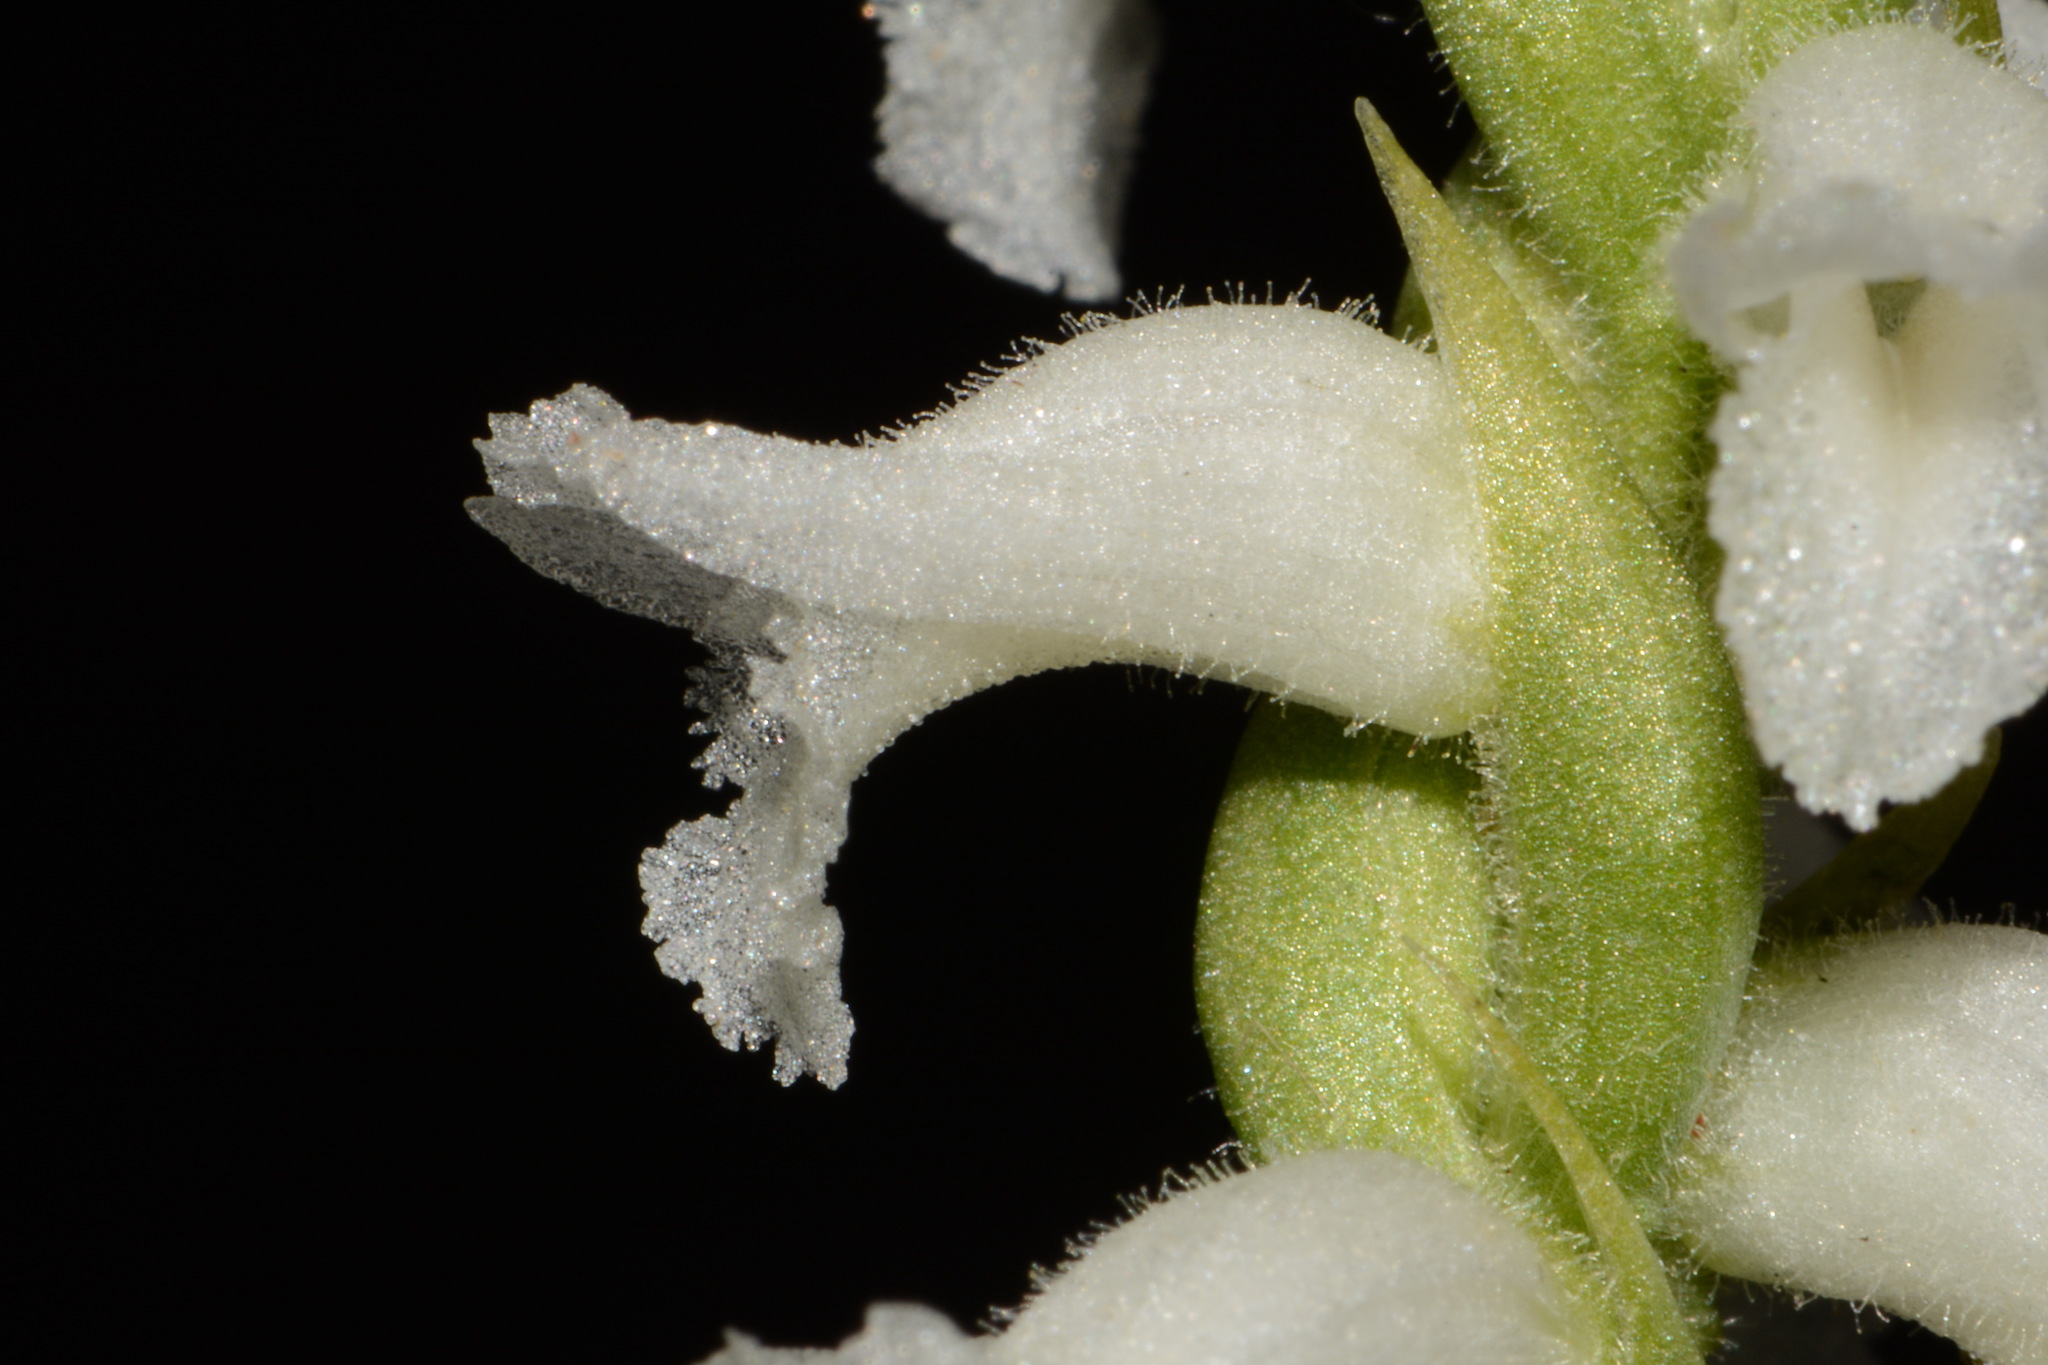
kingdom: Plantae
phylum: Tracheophyta
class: Liliopsida
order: Asparagales
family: Orchidaceae
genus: Spiranthes
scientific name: Spiranthes cernua
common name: Dropping ladies'-tresses
